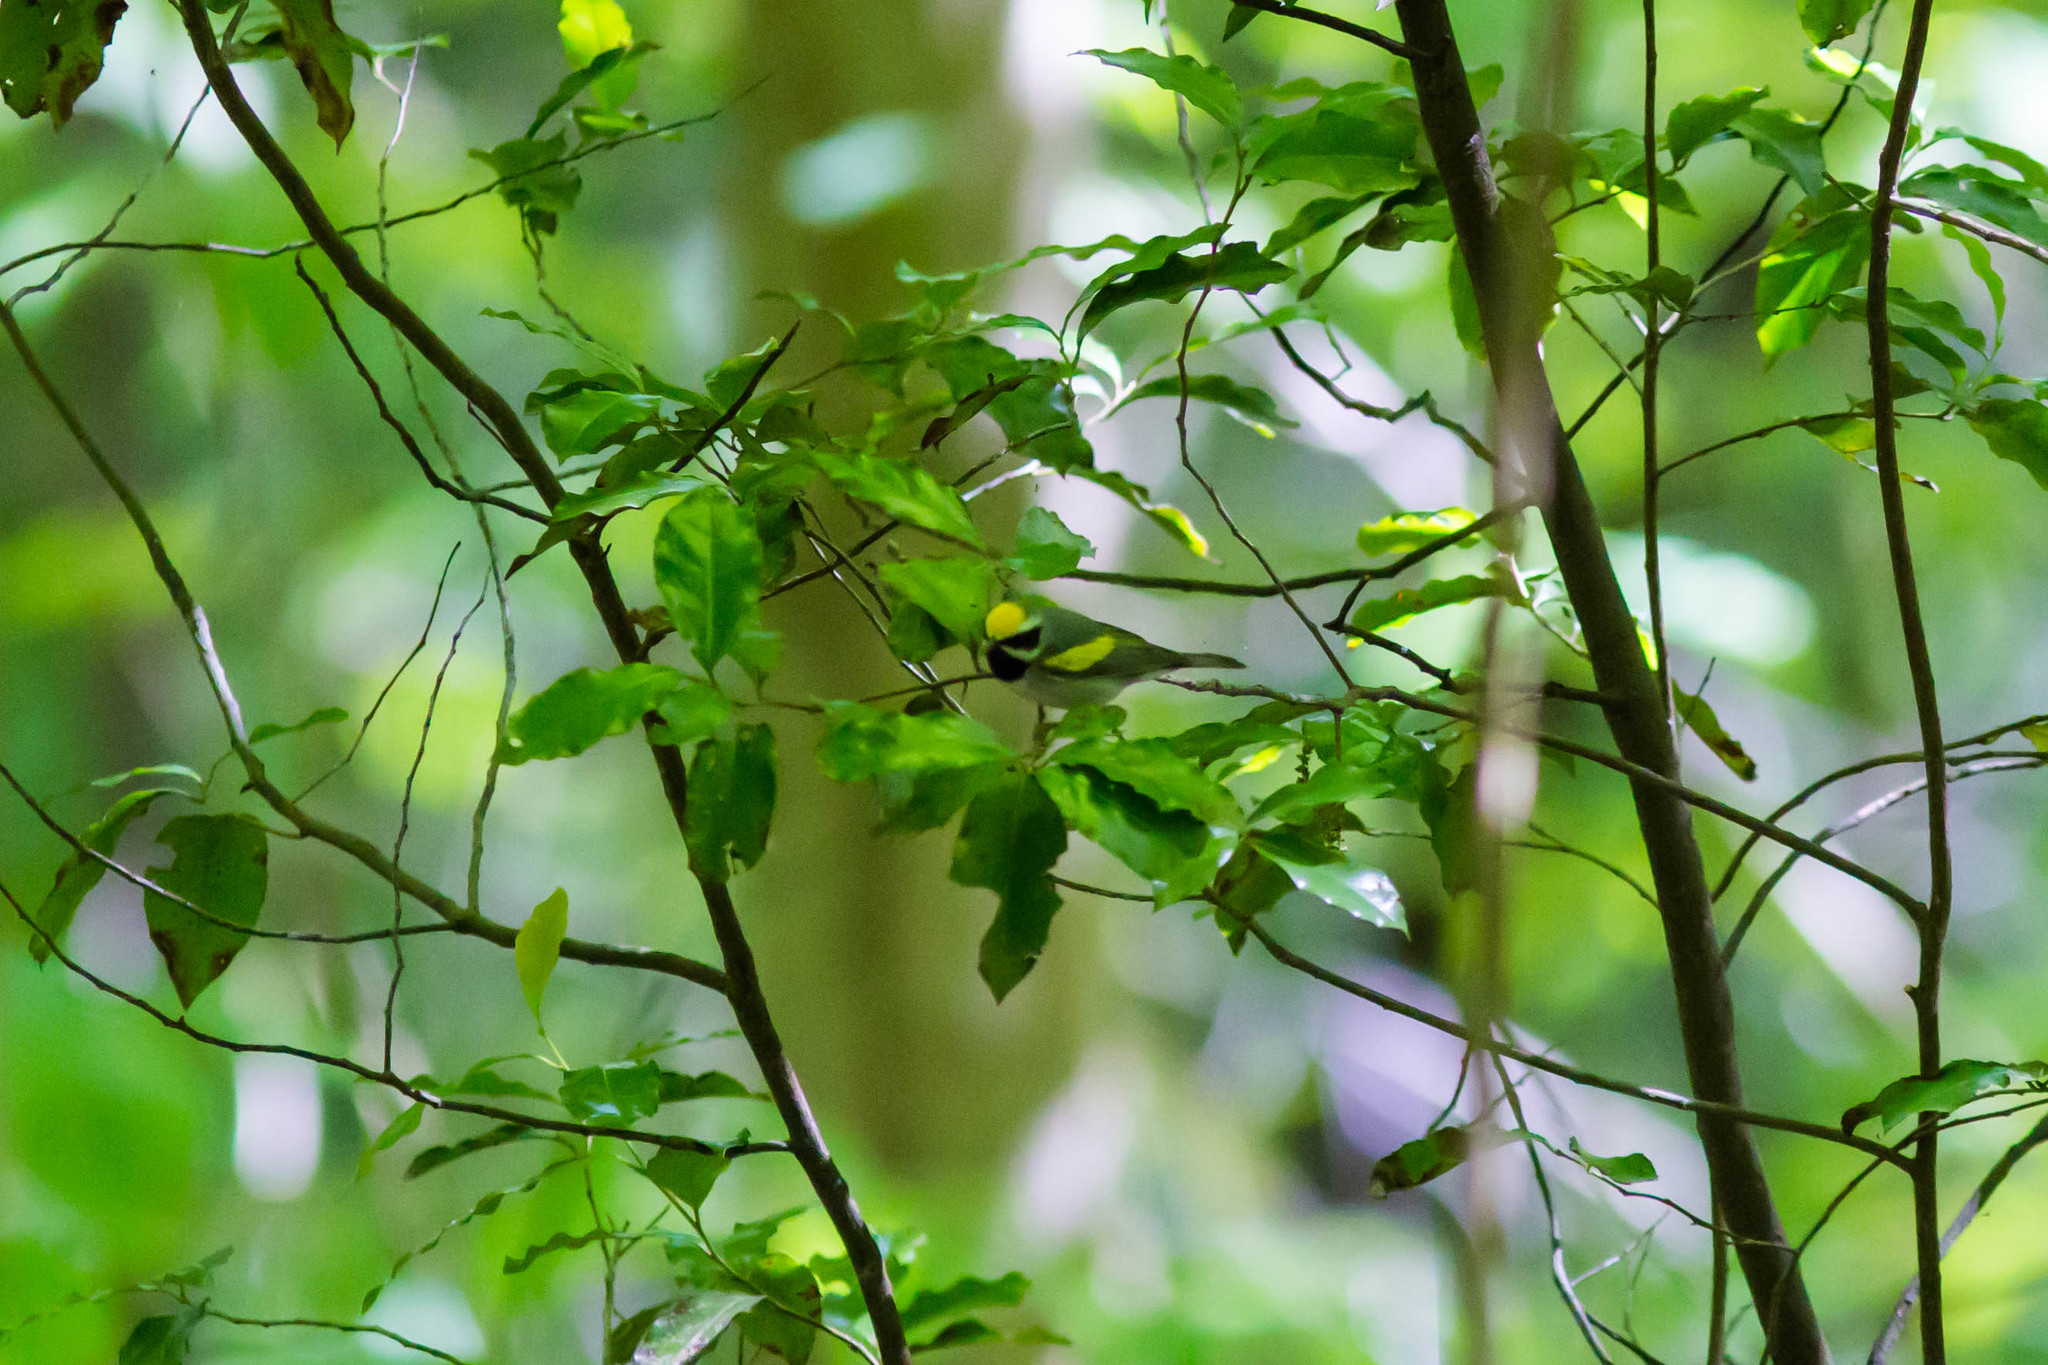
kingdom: Animalia
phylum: Chordata
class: Aves
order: Passeriformes
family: Parulidae
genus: Vermivora
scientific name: Vermivora chrysoptera
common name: Golden-winged warbler
